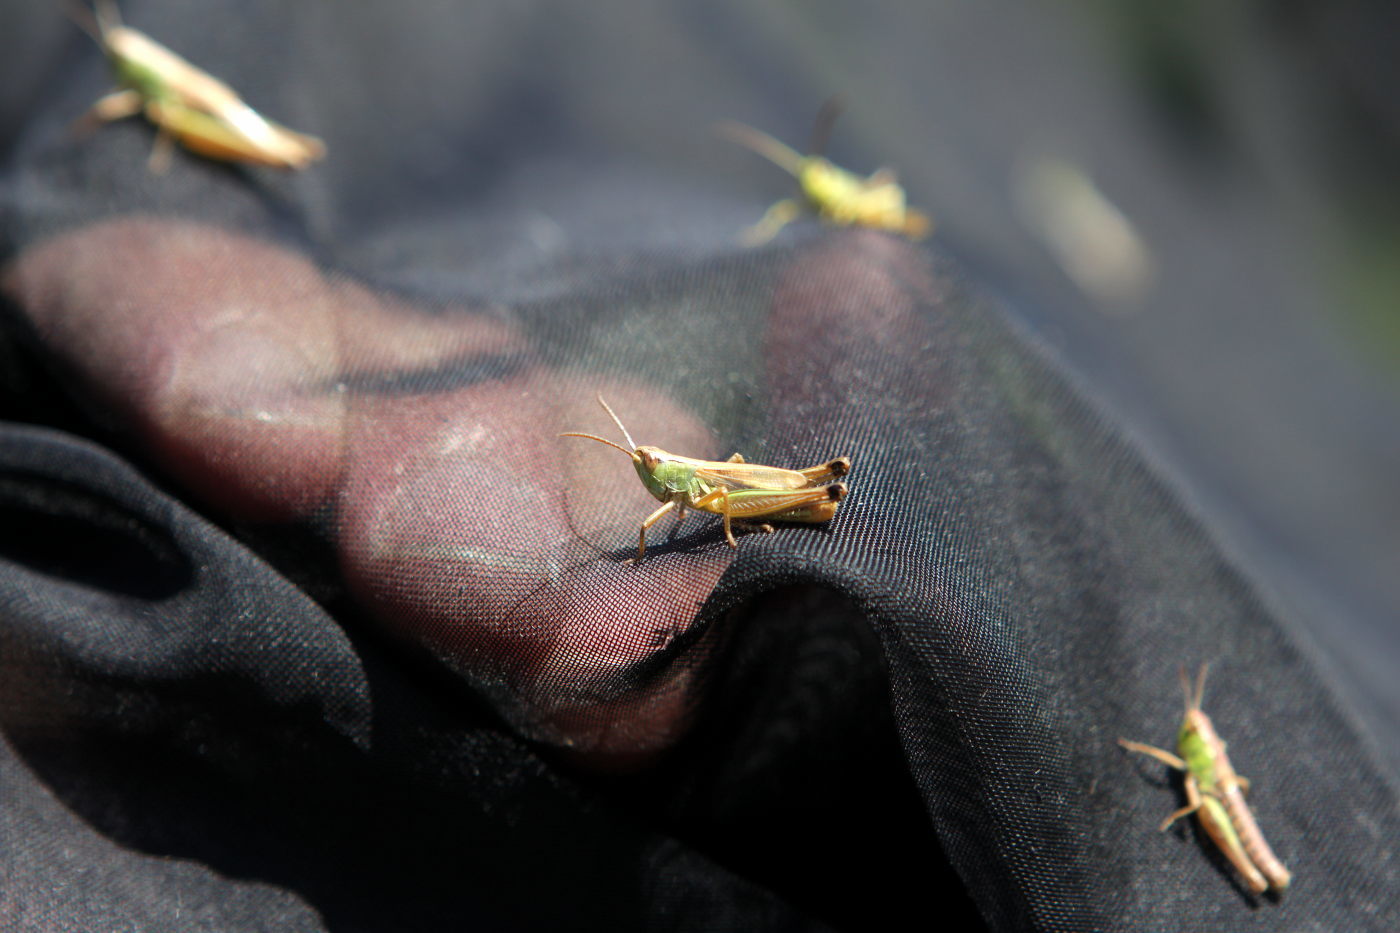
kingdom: Animalia
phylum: Arthropoda
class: Insecta
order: Orthoptera
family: Acrididae
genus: Pseudochorthippus
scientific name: Pseudochorthippus parallelus
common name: Meadow grasshopper
